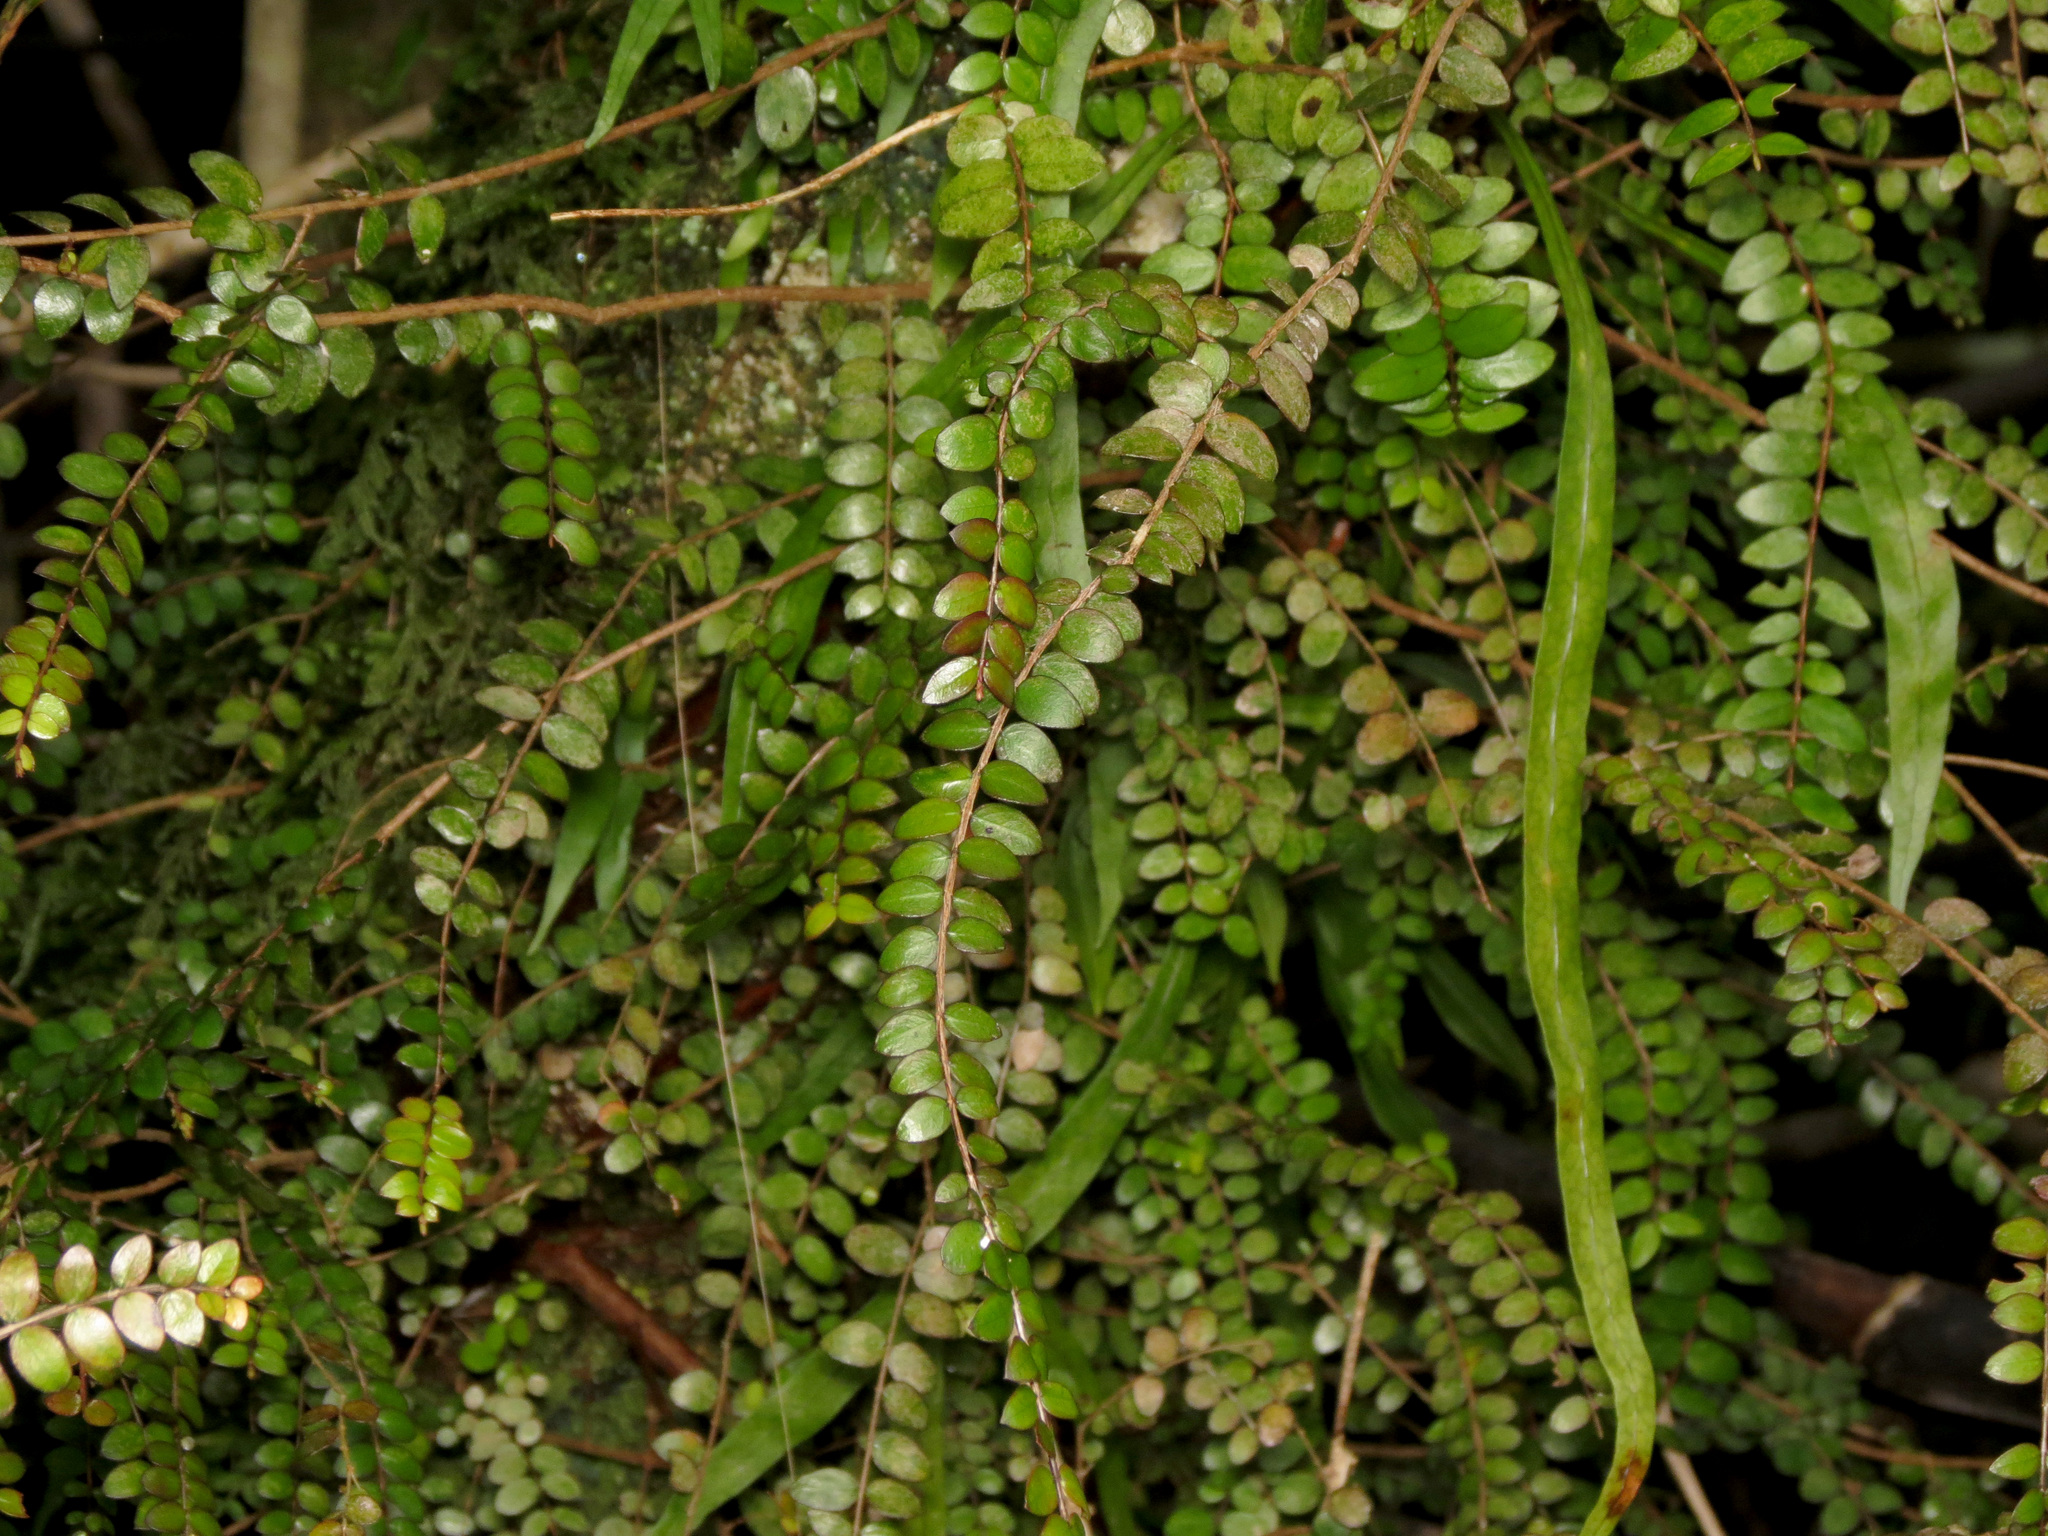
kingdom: Plantae
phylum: Tracheophyta
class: Magnoliopsida
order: Myrtales
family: Myrtaceae
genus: Metrosideros
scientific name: Metrosideros diffusa
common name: Small ratavine
